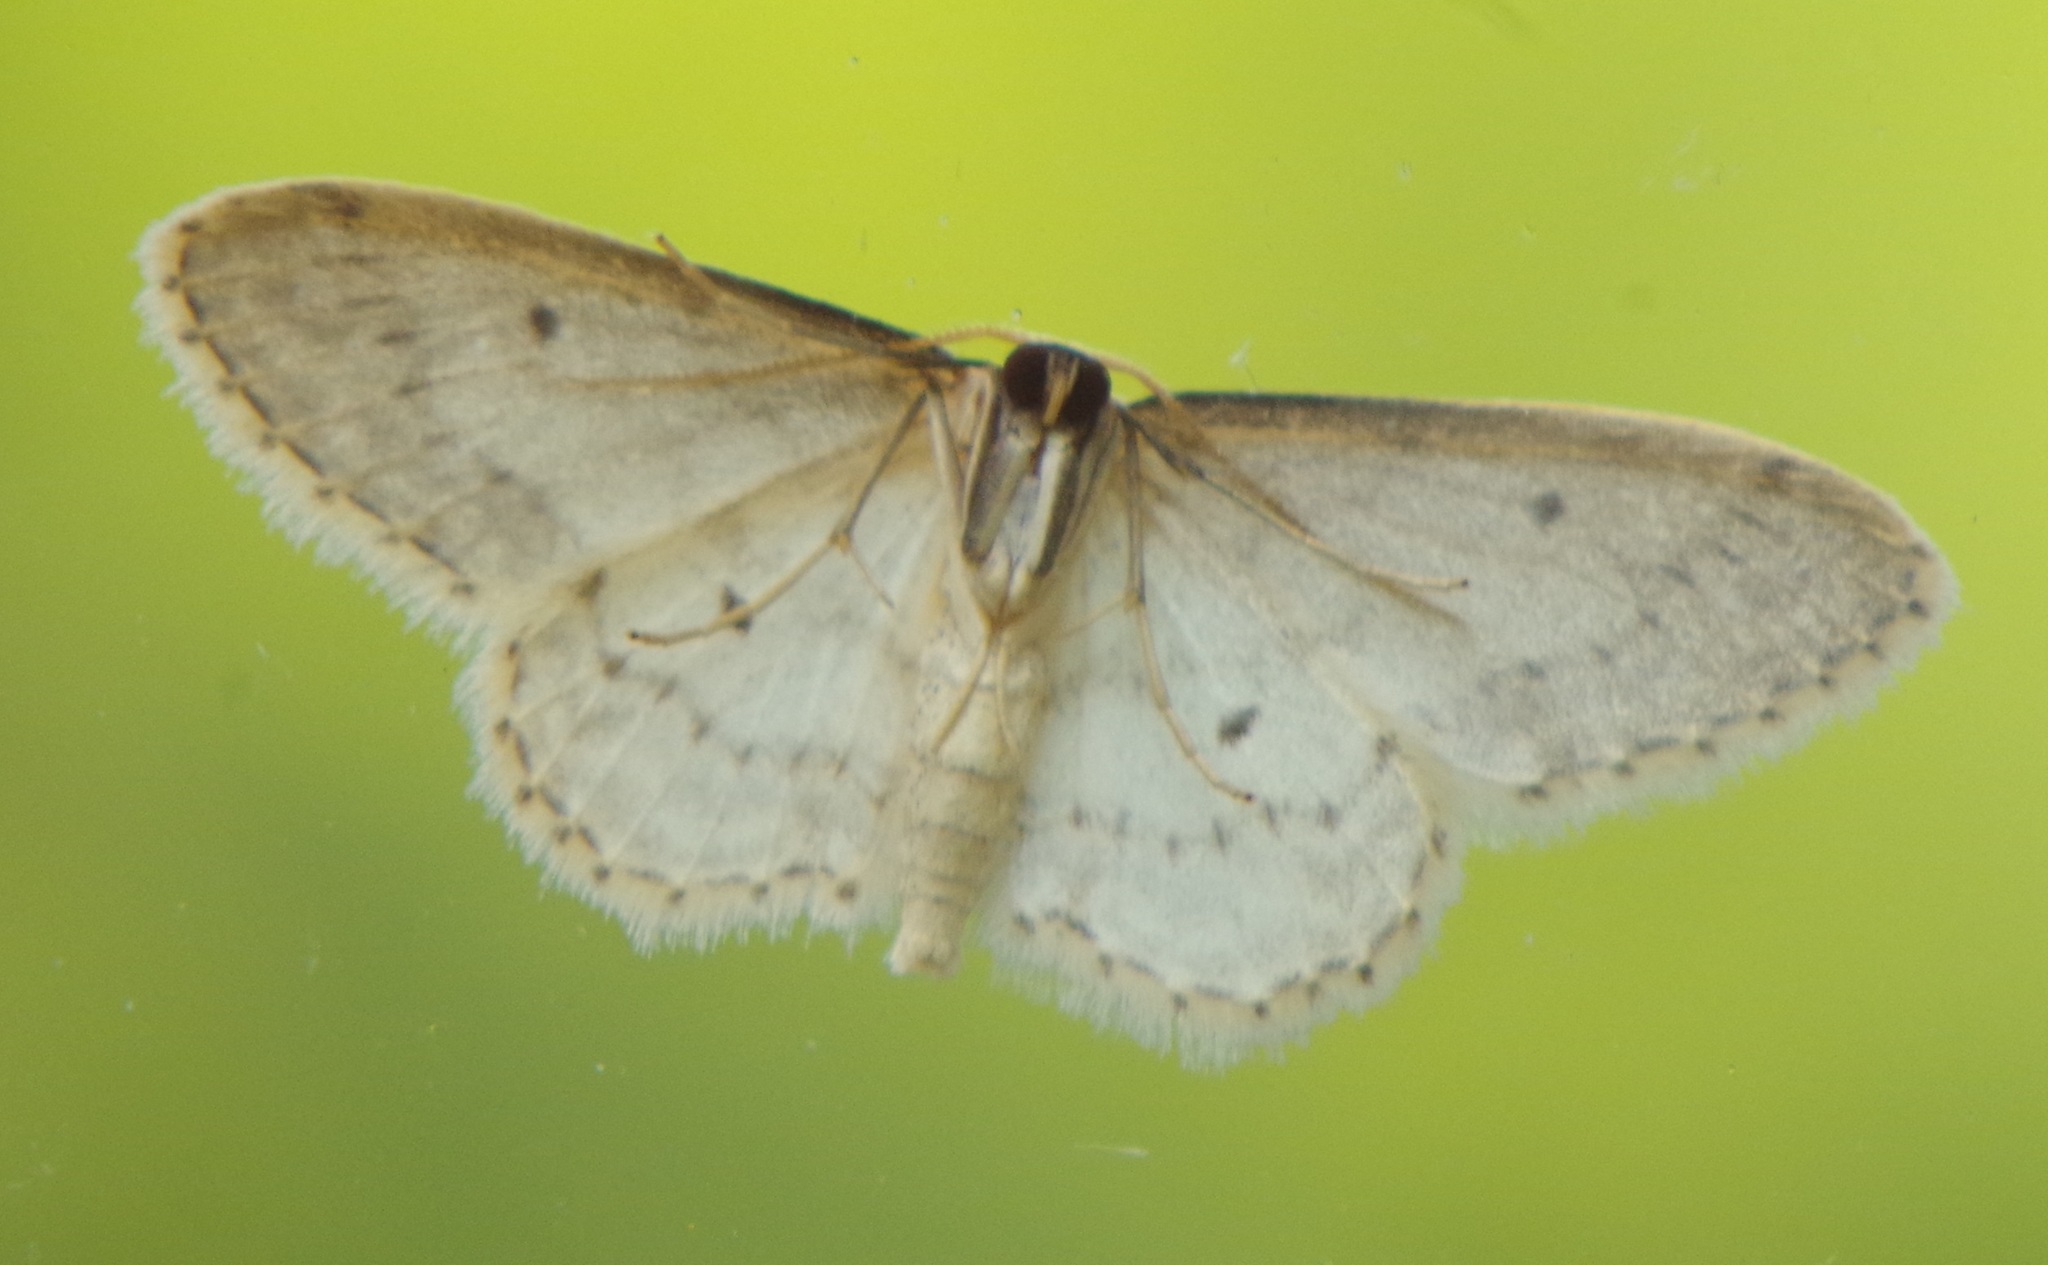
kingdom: Animalia
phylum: Arthropoda
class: Insecta
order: Lepidoptera
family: Geometridae
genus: Idaea
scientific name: Idaea seriata
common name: Small dusty wave
